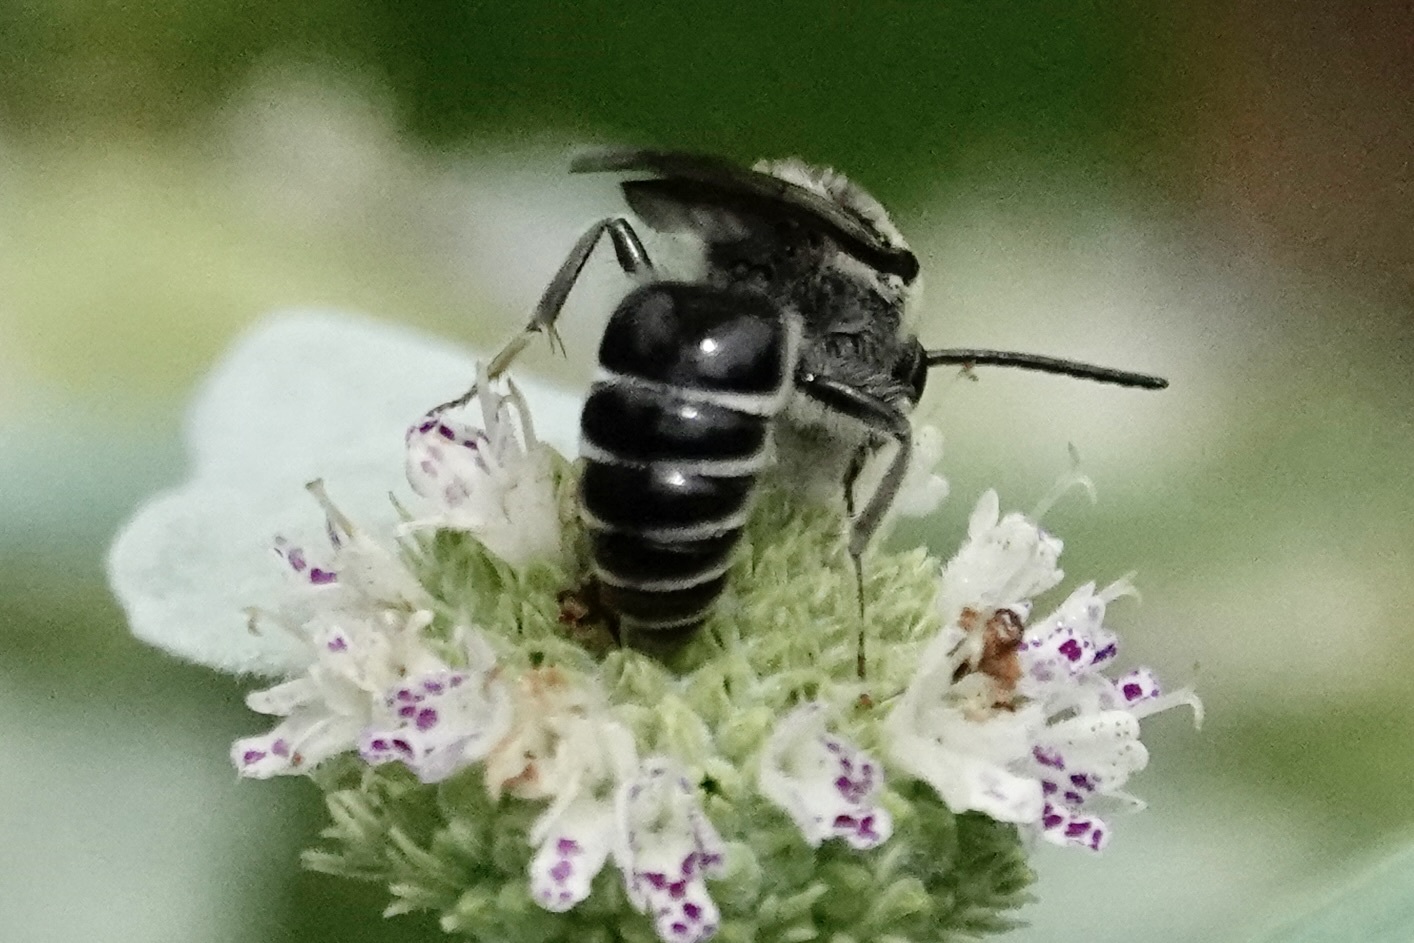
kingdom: Animalia
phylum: Arthropoda
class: Insecta
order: Hymenoptera
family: Colletidae
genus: Colletes
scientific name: Colletes nudus
